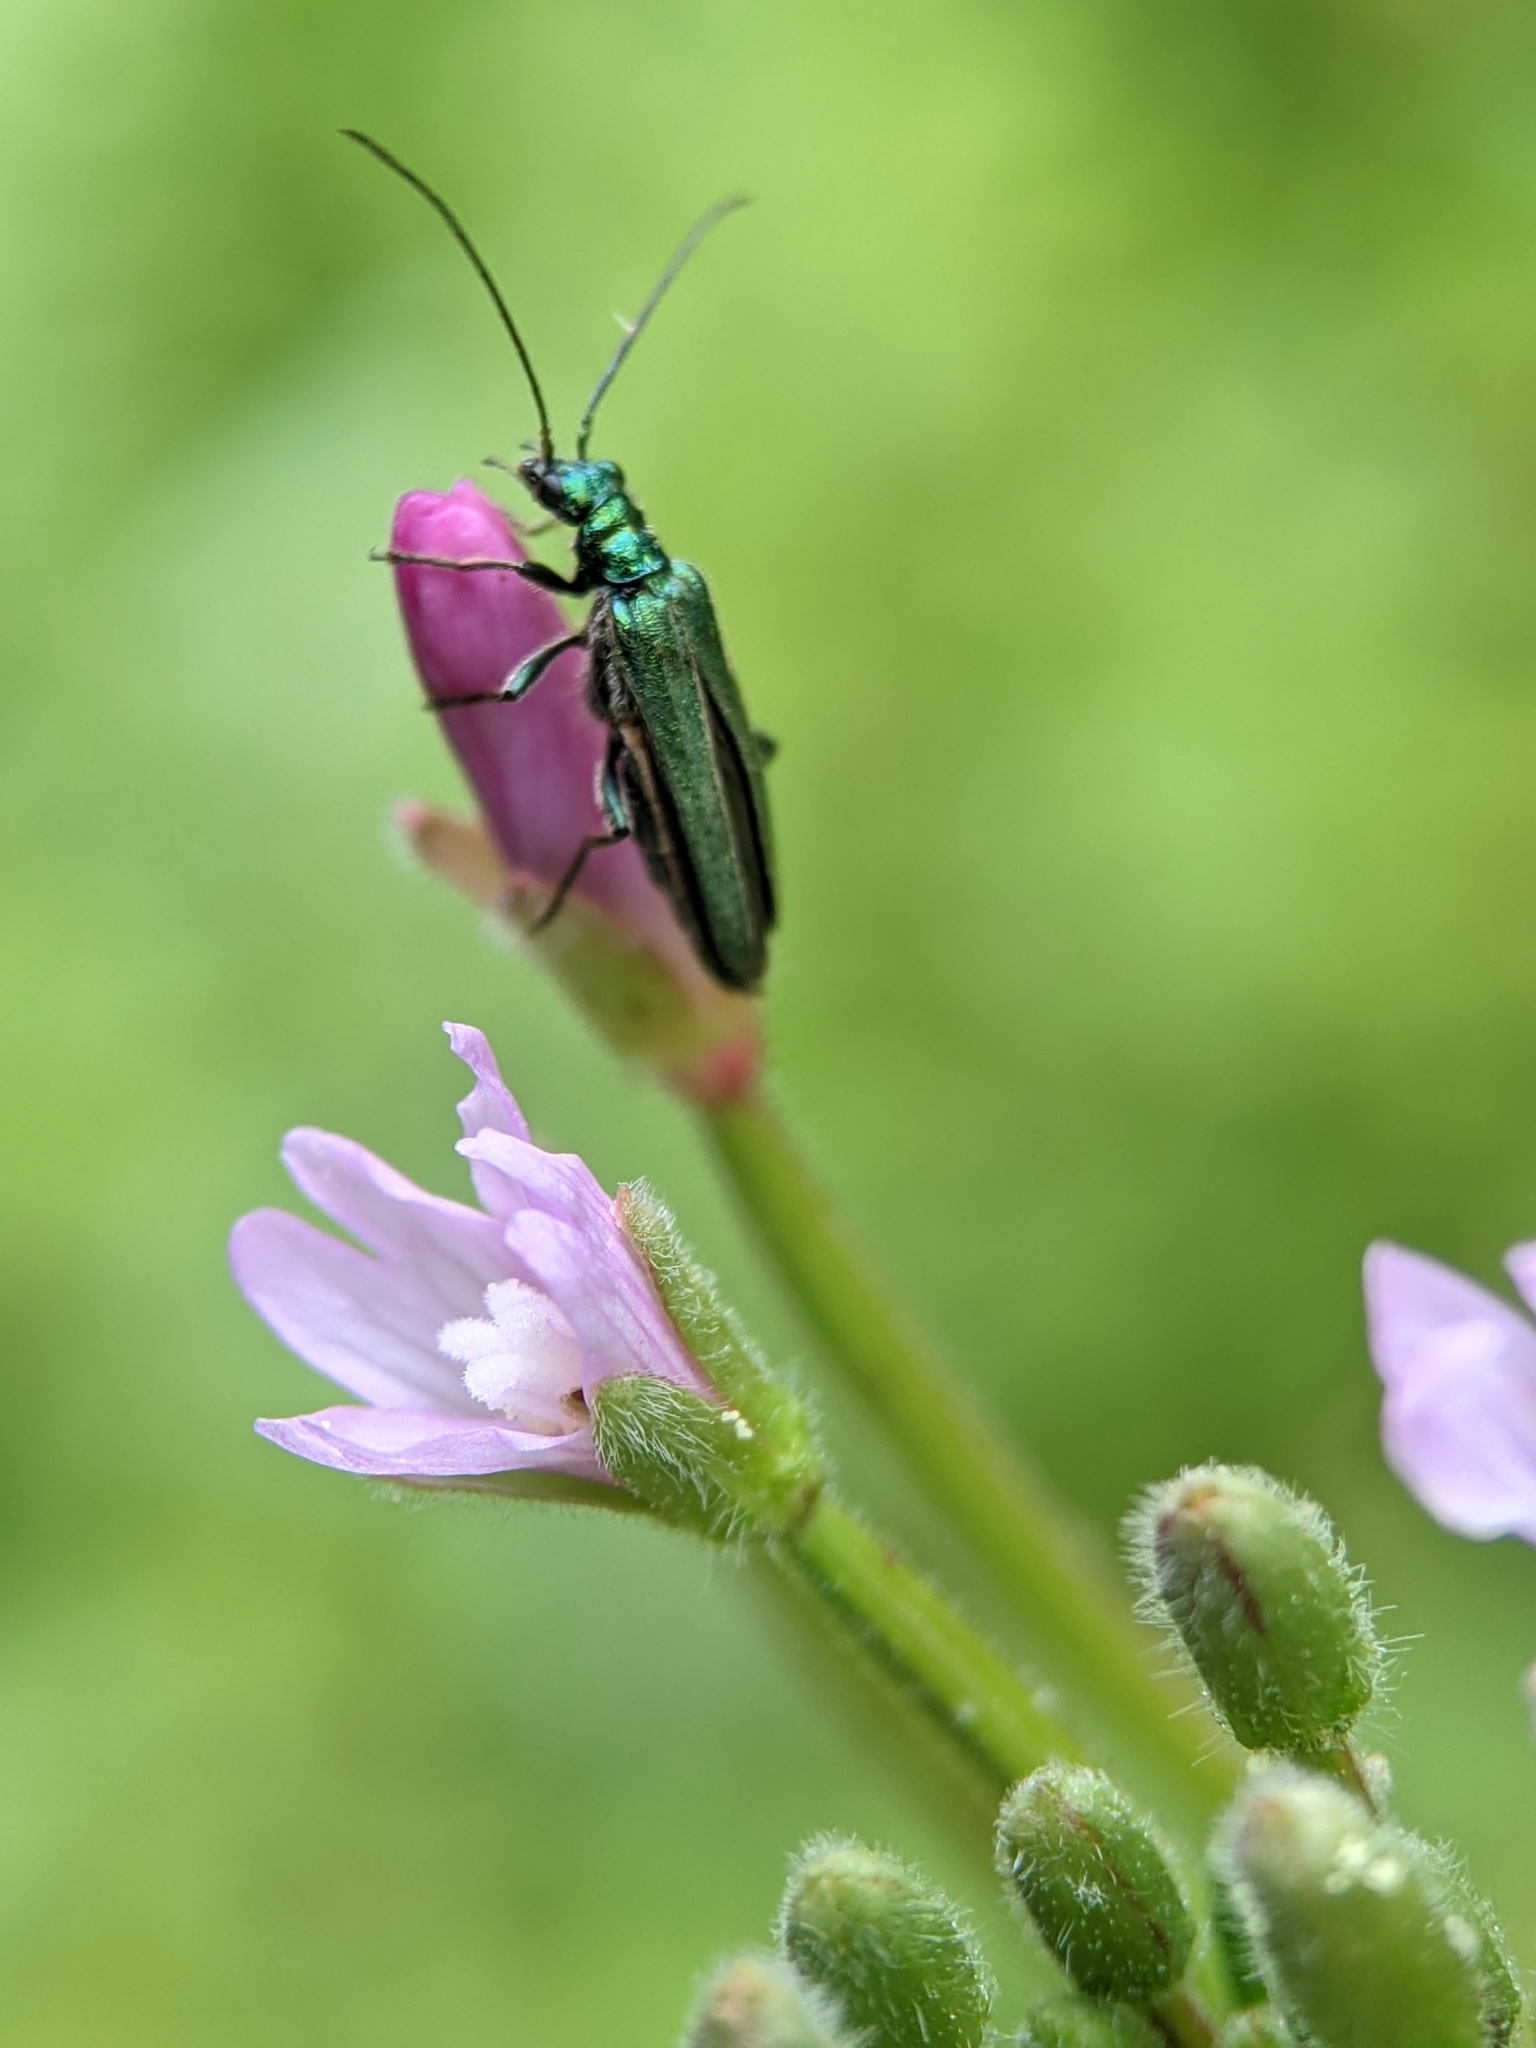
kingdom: Animalia
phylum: Arthropoda
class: Insecta
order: Coleoptera
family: Oedemeridae
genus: Oedemera
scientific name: Oedemera nobilis
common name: Swollen-thighed beetle
